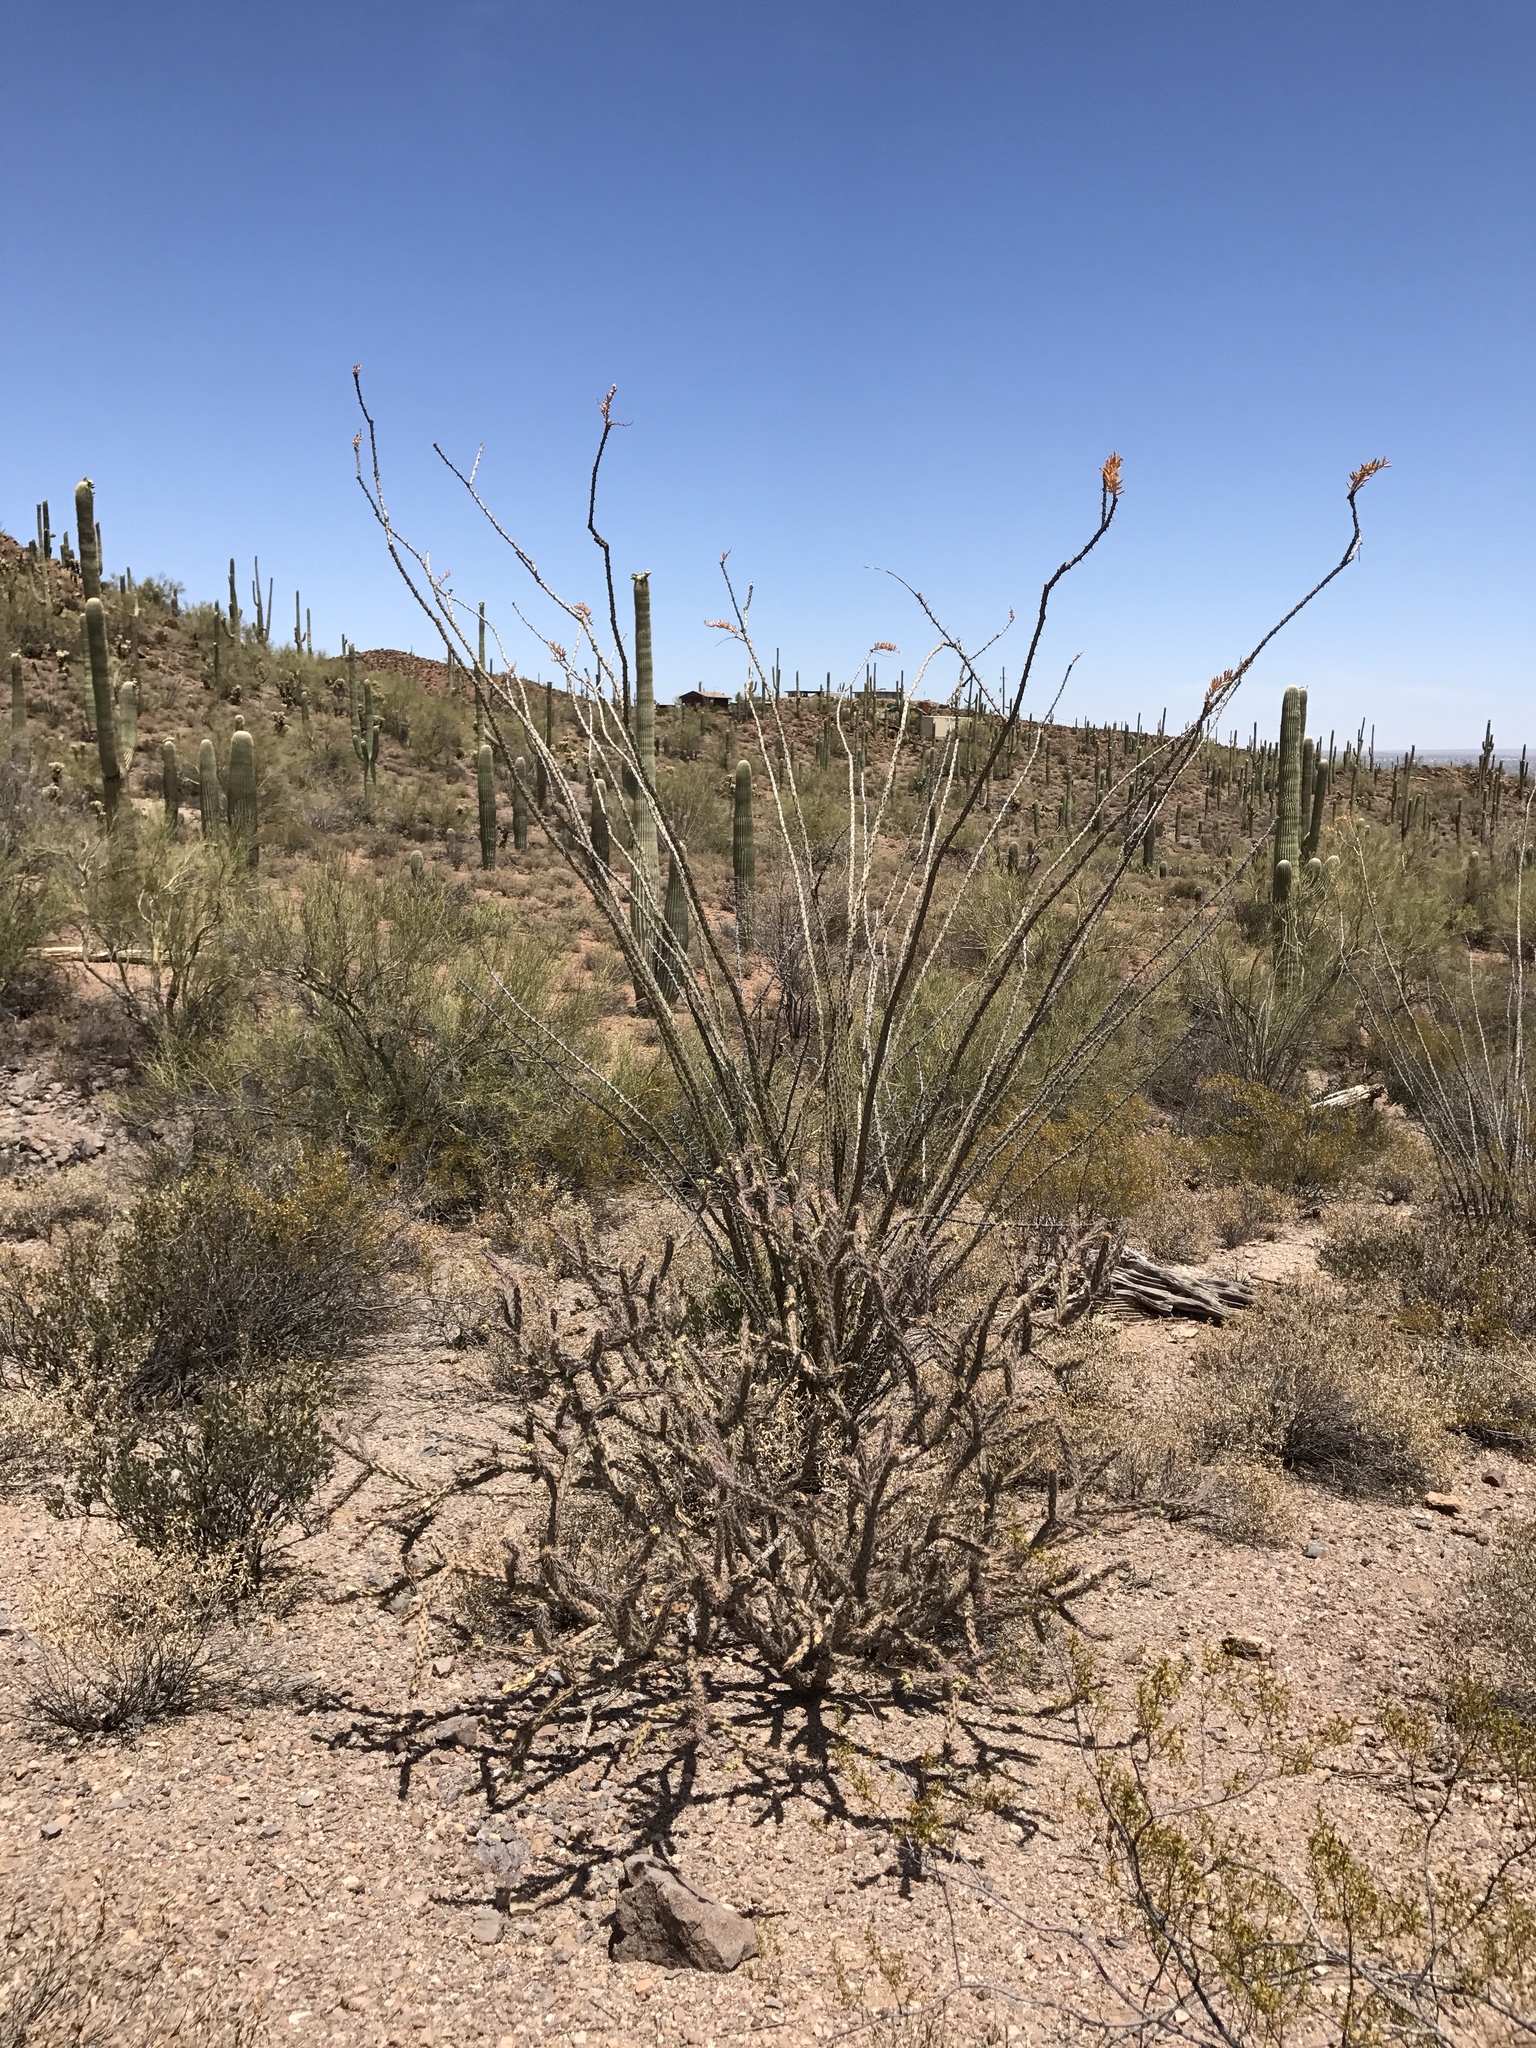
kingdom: Plantae
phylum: Tracheophyta
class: Magnoliopsida
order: Ericales
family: Fouquieriaceae
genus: Fouquieria
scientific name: Fouquieria splendens
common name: Vine-cactus
